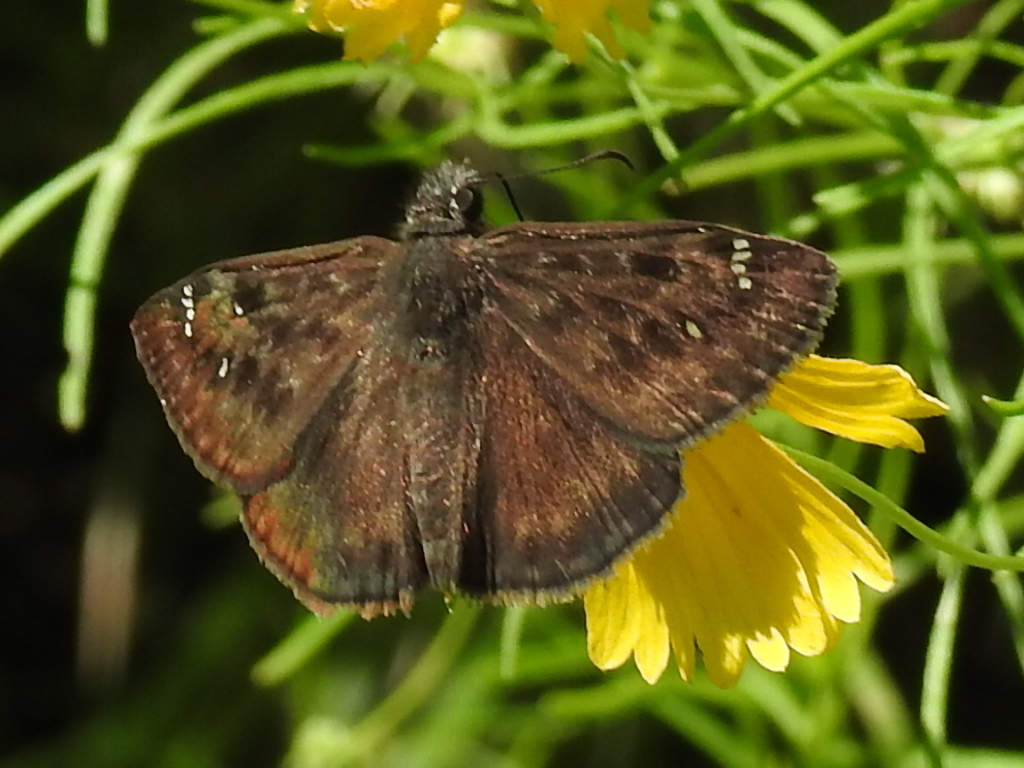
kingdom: Animalia
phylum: Arthropoda
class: Insecta
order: Lepidoptera
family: Hesperiidae
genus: Erynnis
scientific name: Erynnis horatius
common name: Horace's duskywing
